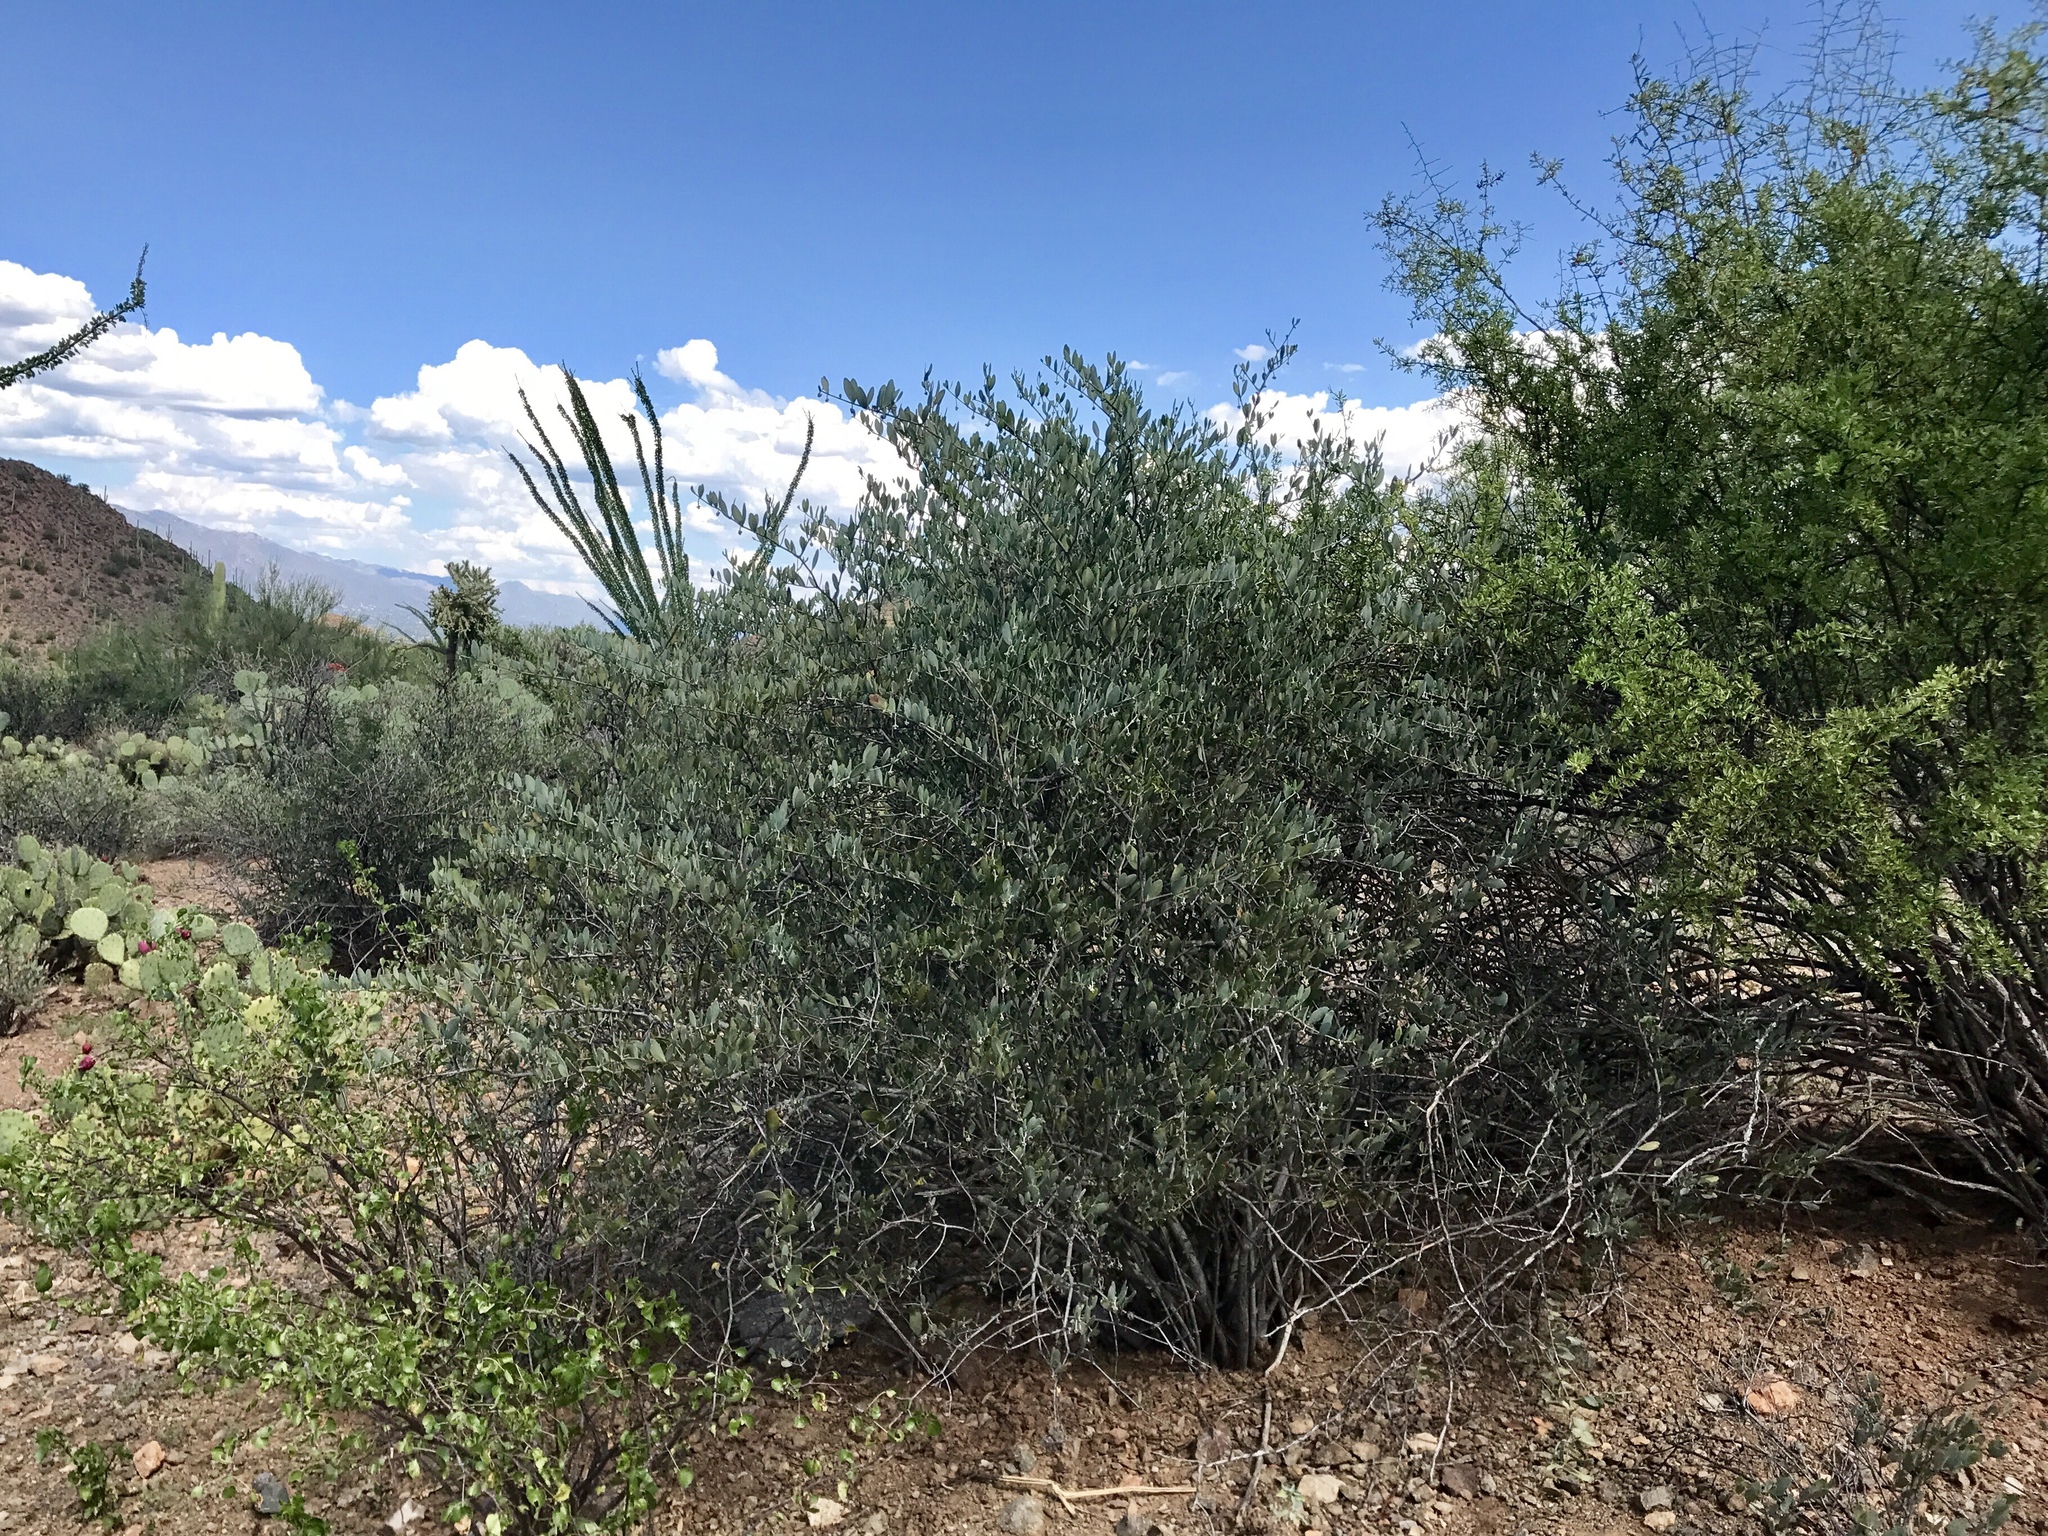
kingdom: Plantae
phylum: Tracheophyta
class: Magnoliopsida
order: Caryophyllales
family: Simmondsiaceae
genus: Simmondsia
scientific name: Simmondsia chinensis
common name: Jojoba
